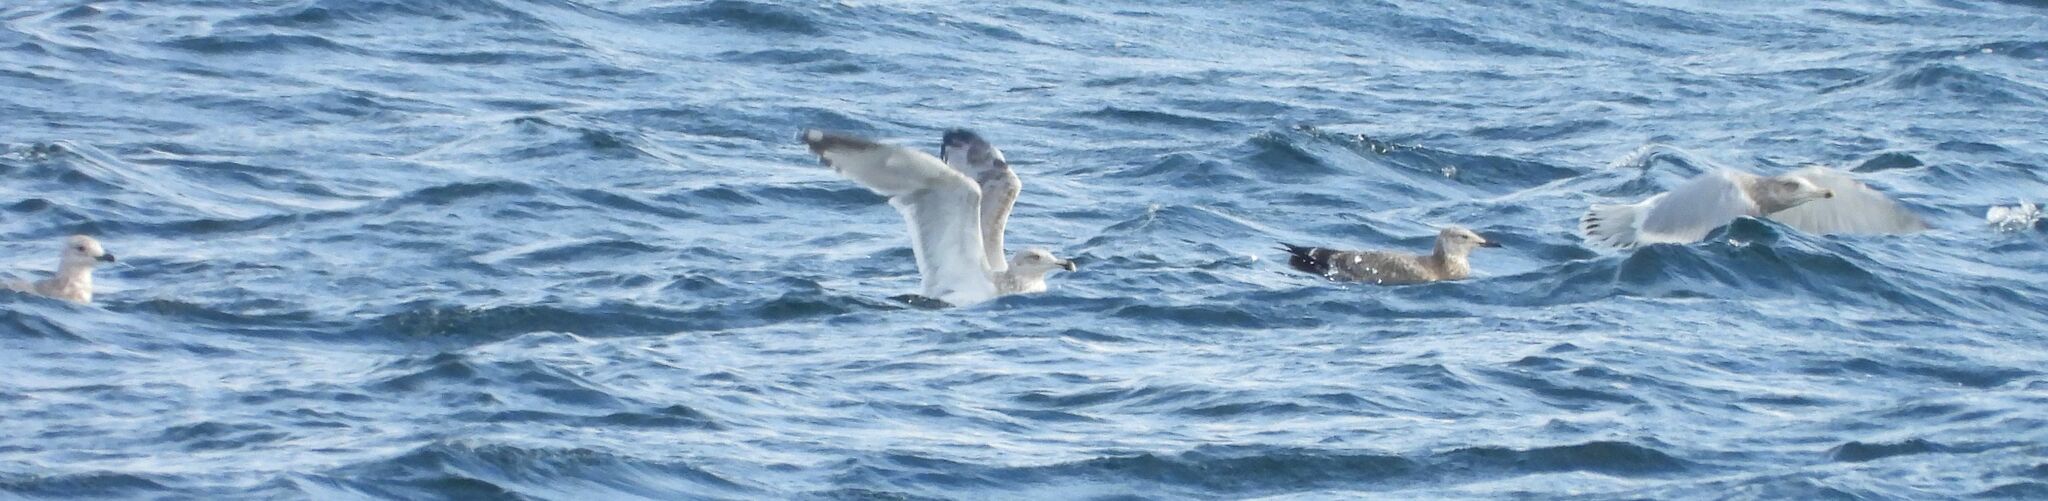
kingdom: Animalia
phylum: Chordata
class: Aves
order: Charadriiformes
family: Laridae
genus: Larus
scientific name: Larus argentatus
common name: Herring gull
